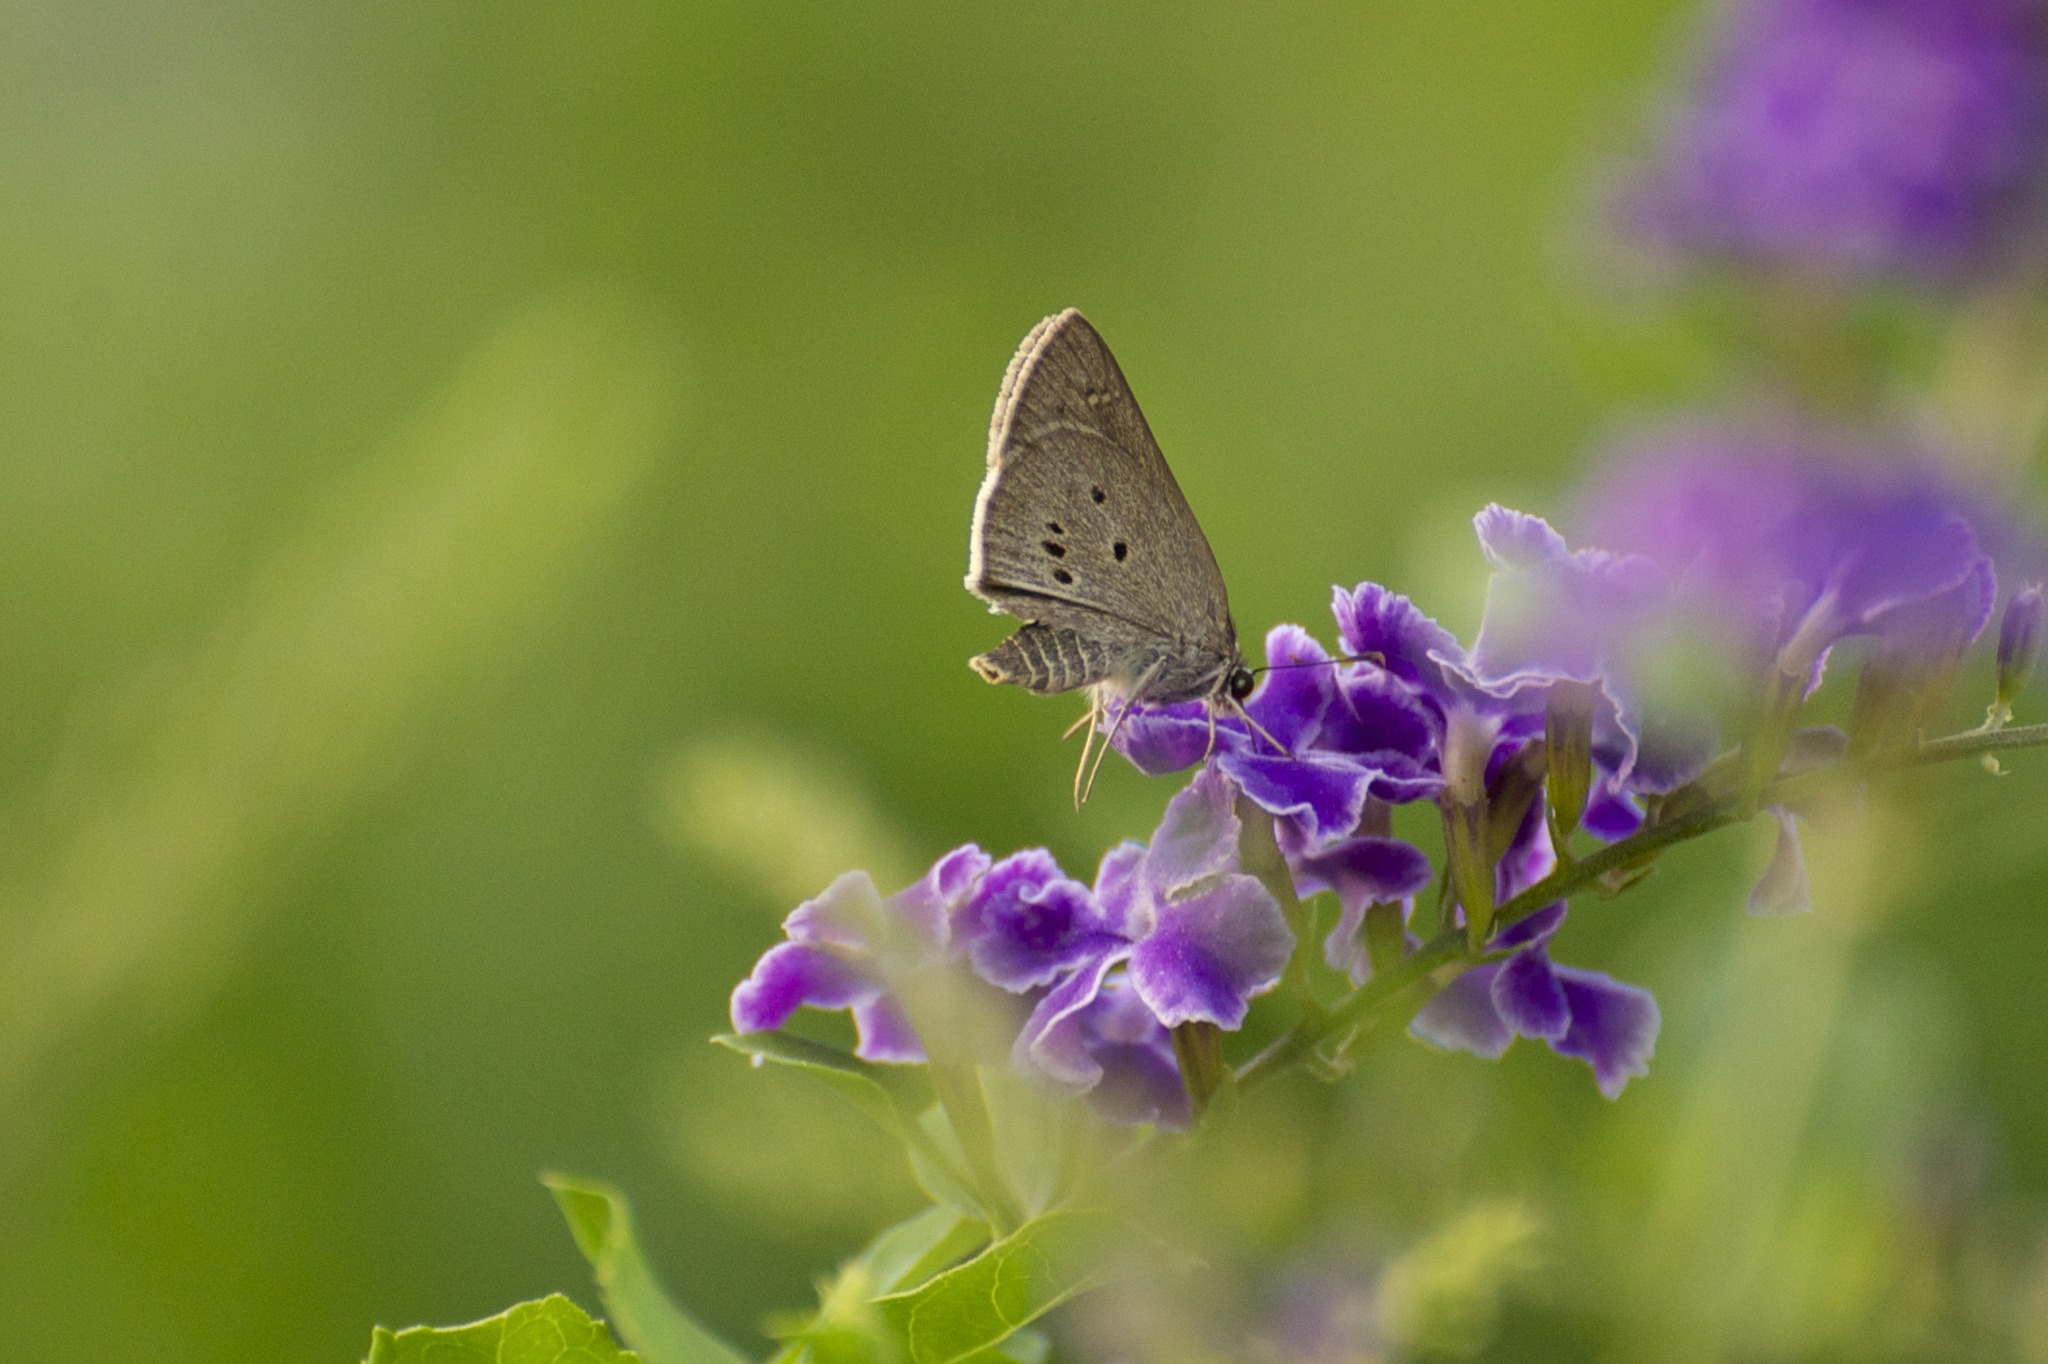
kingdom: Animalia
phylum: Arthropoda
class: Insecta
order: Lepidoptera
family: Hesperiidae
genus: Suastus
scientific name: Suastus gremius
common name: Indian palm bob
